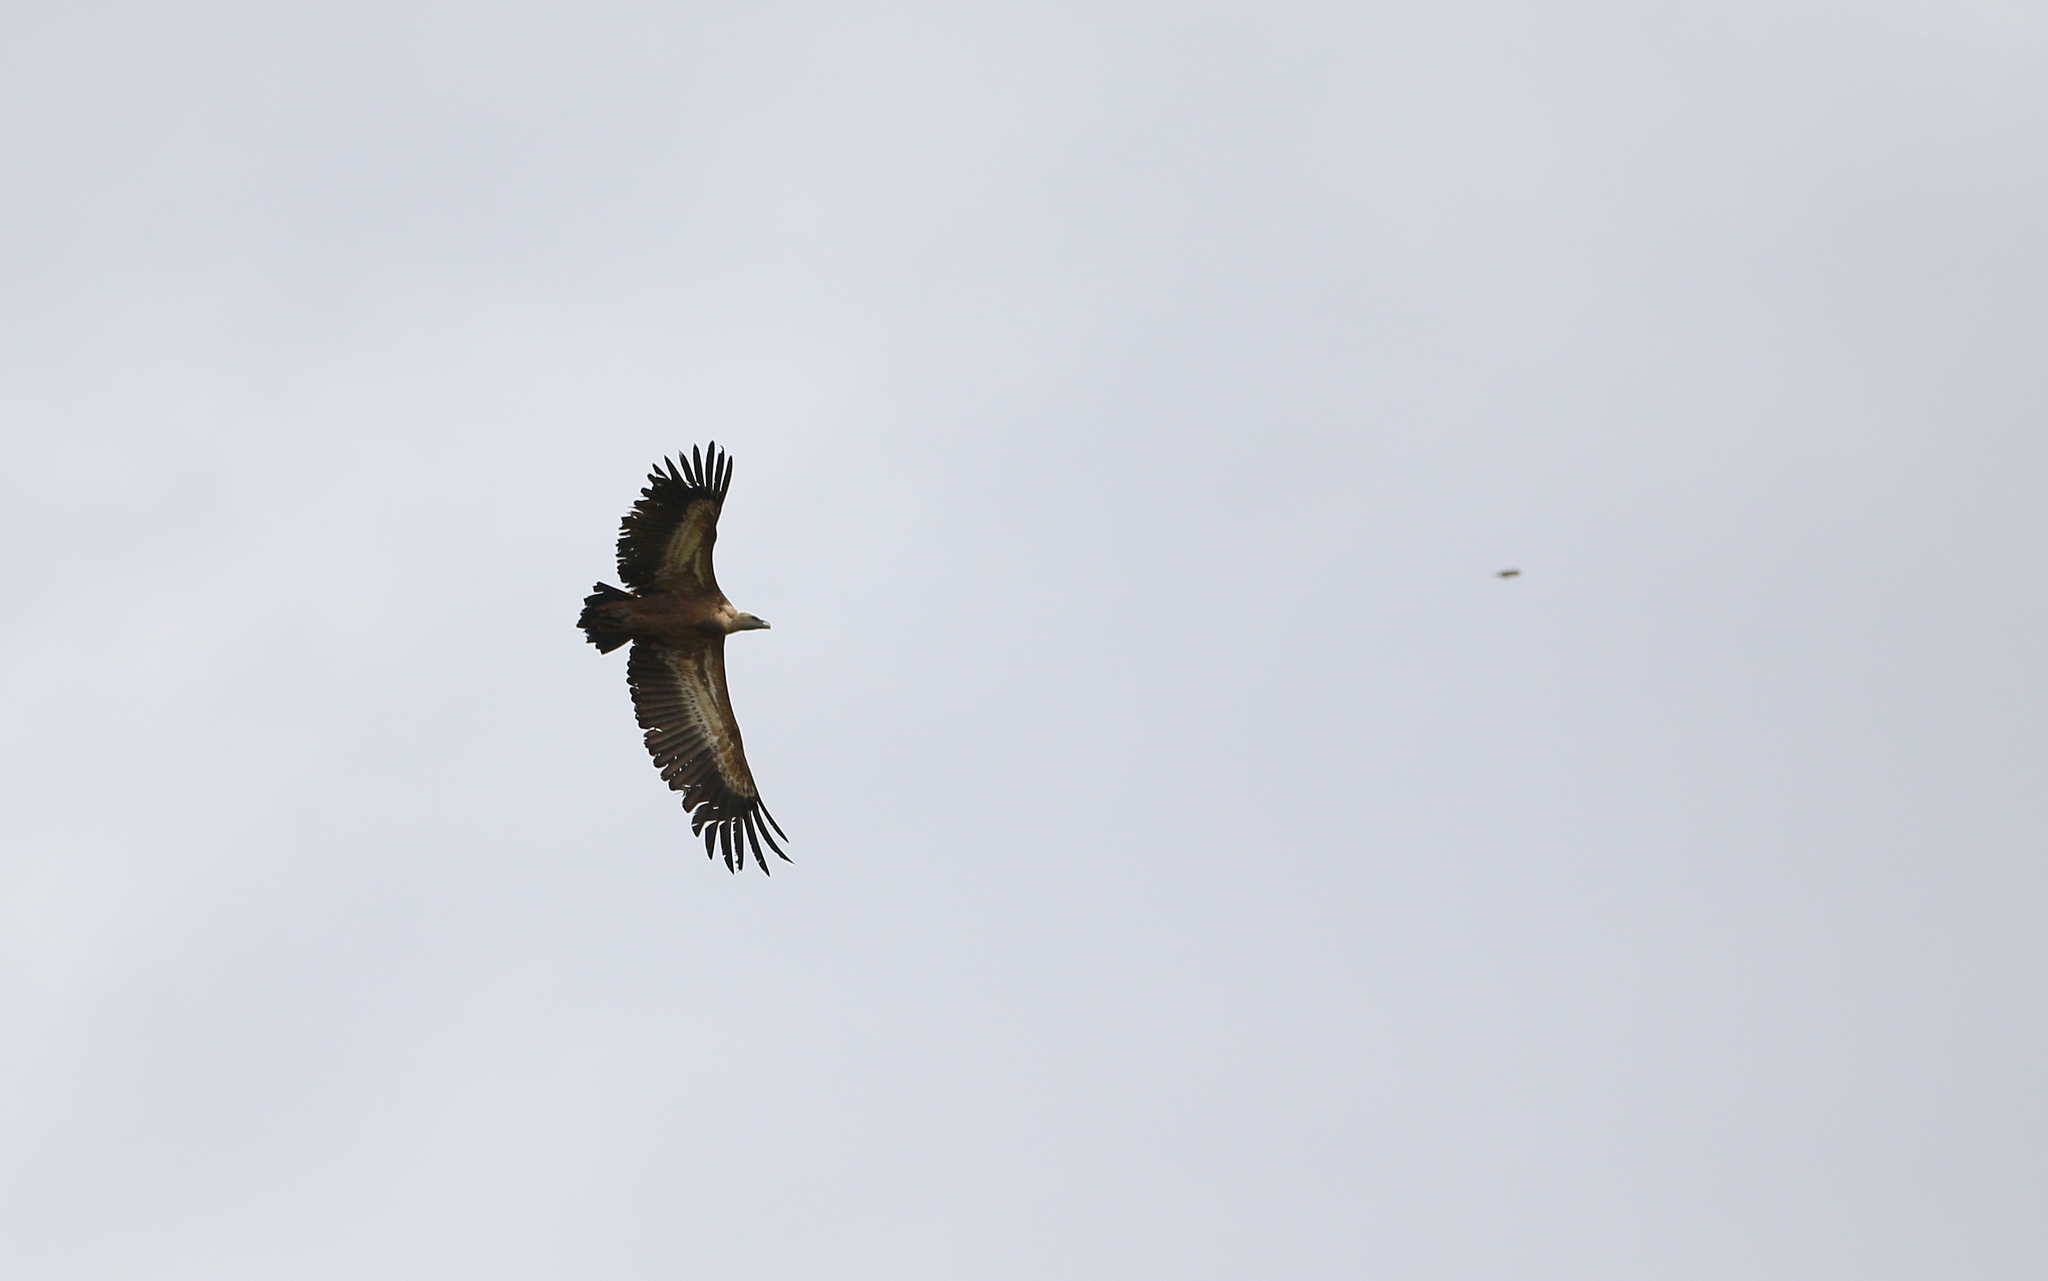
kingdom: Animalia
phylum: Chordata
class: Aves
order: Accipitriformes
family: Accipitridae
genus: Gyps
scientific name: Gyps fulvus
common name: Griffon vulture
